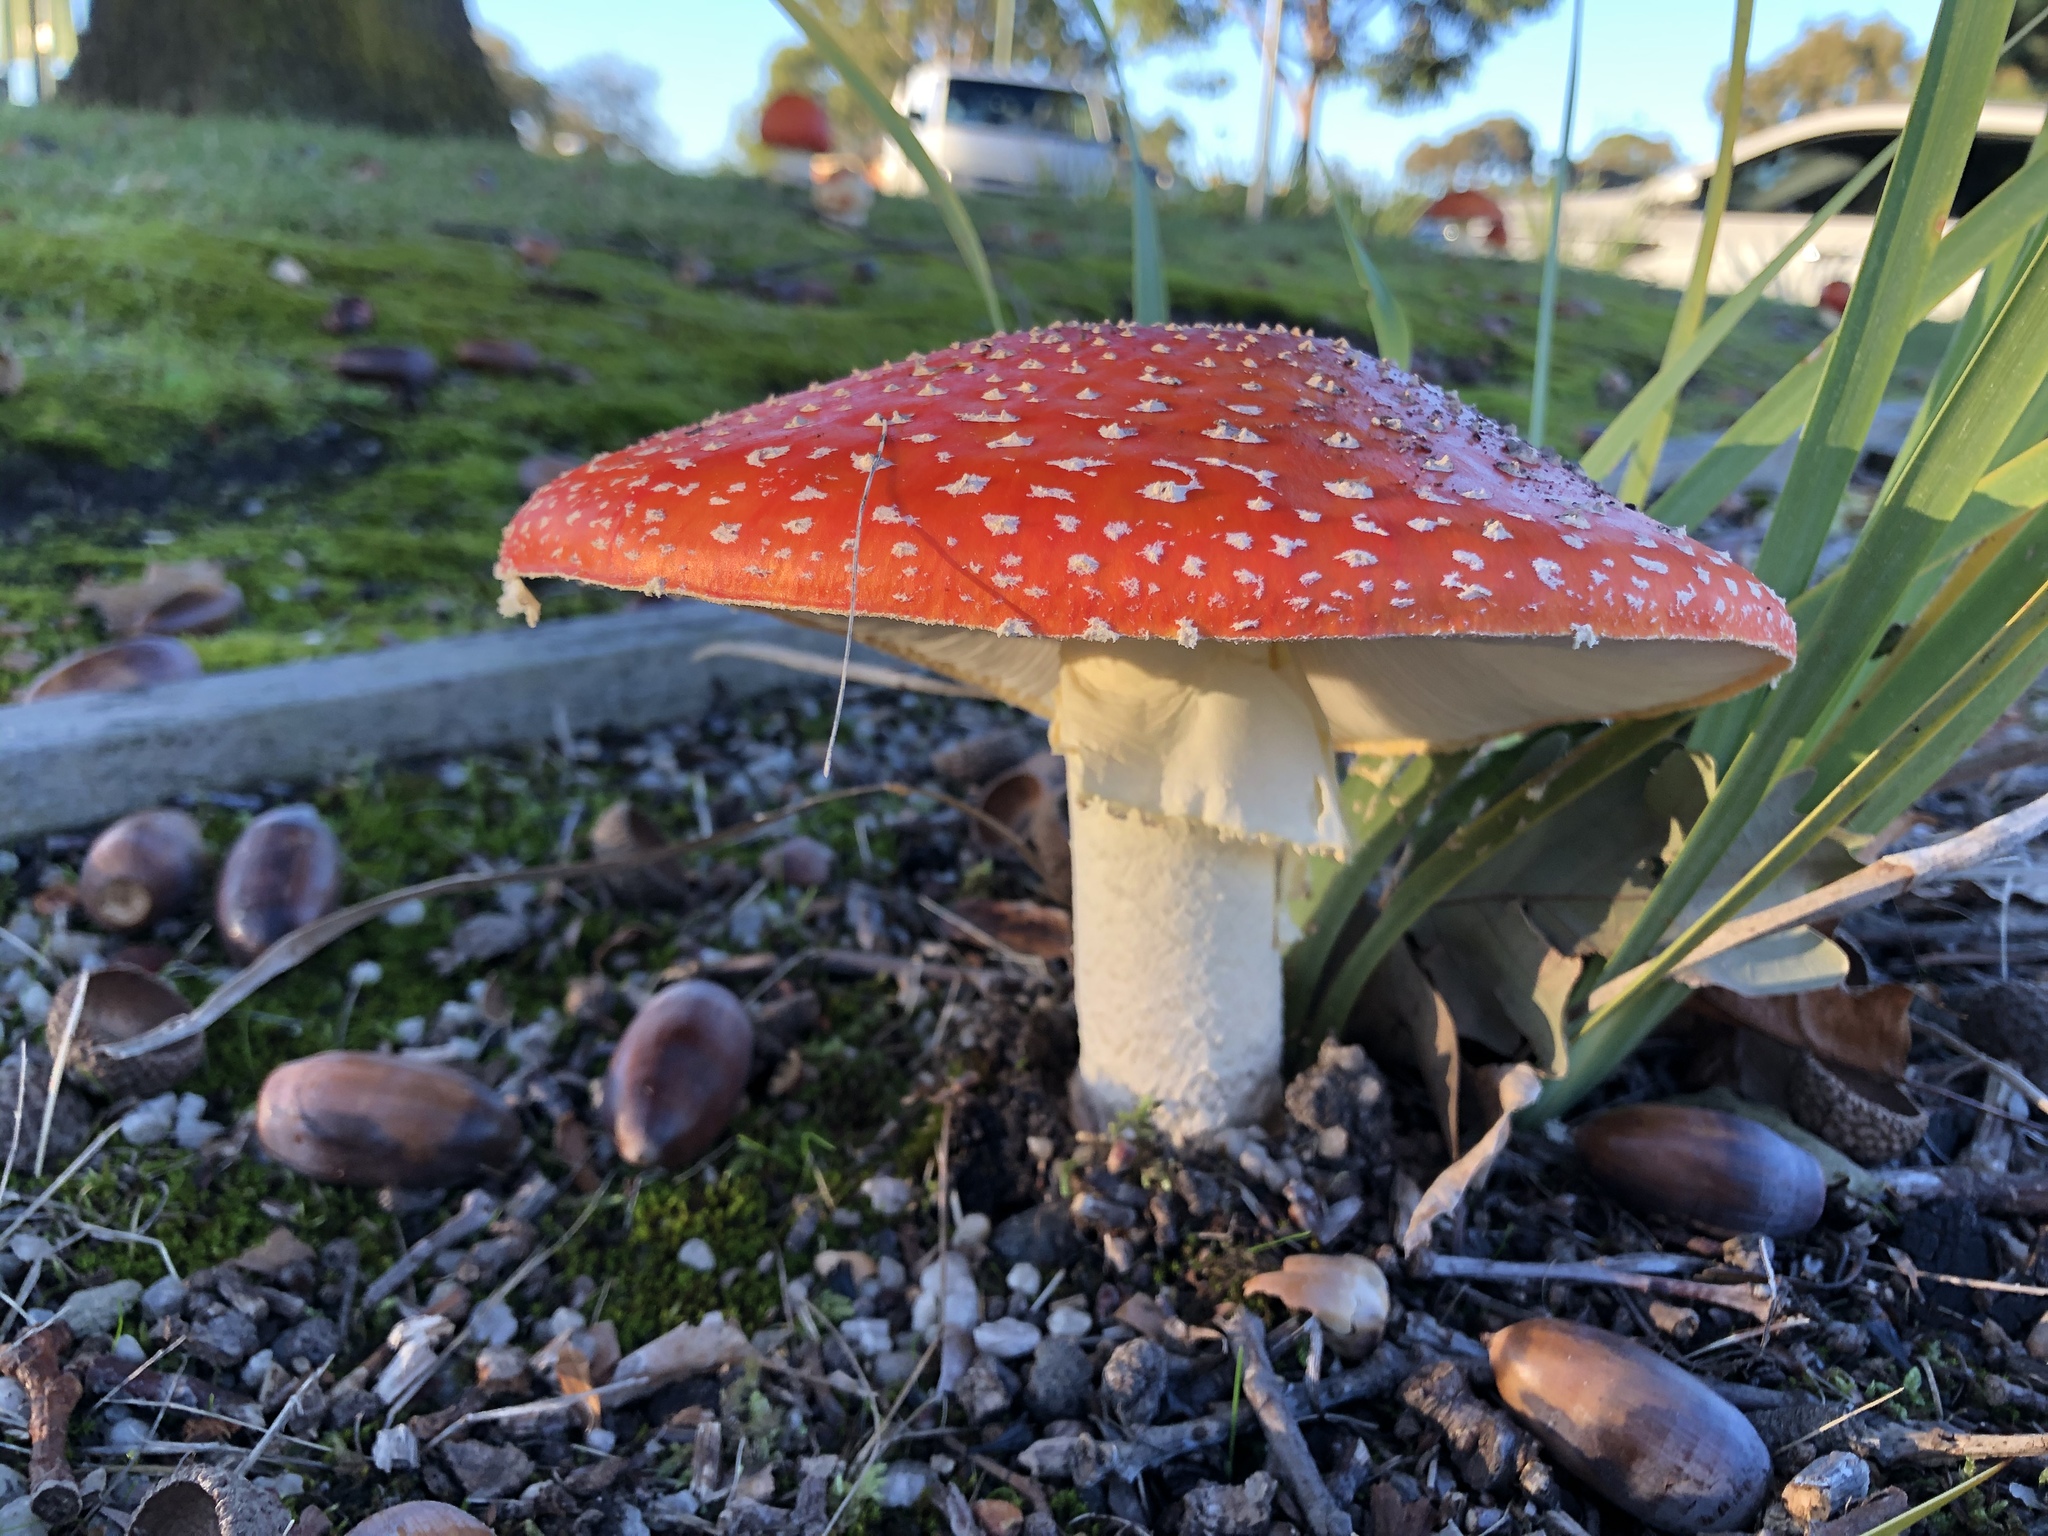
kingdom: Fungi
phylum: Basidiomycota
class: Agaricomycetes
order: Agaricales
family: Amanitaceae
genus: Amanita
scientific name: Amanita muscaria
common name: Fly agaric
